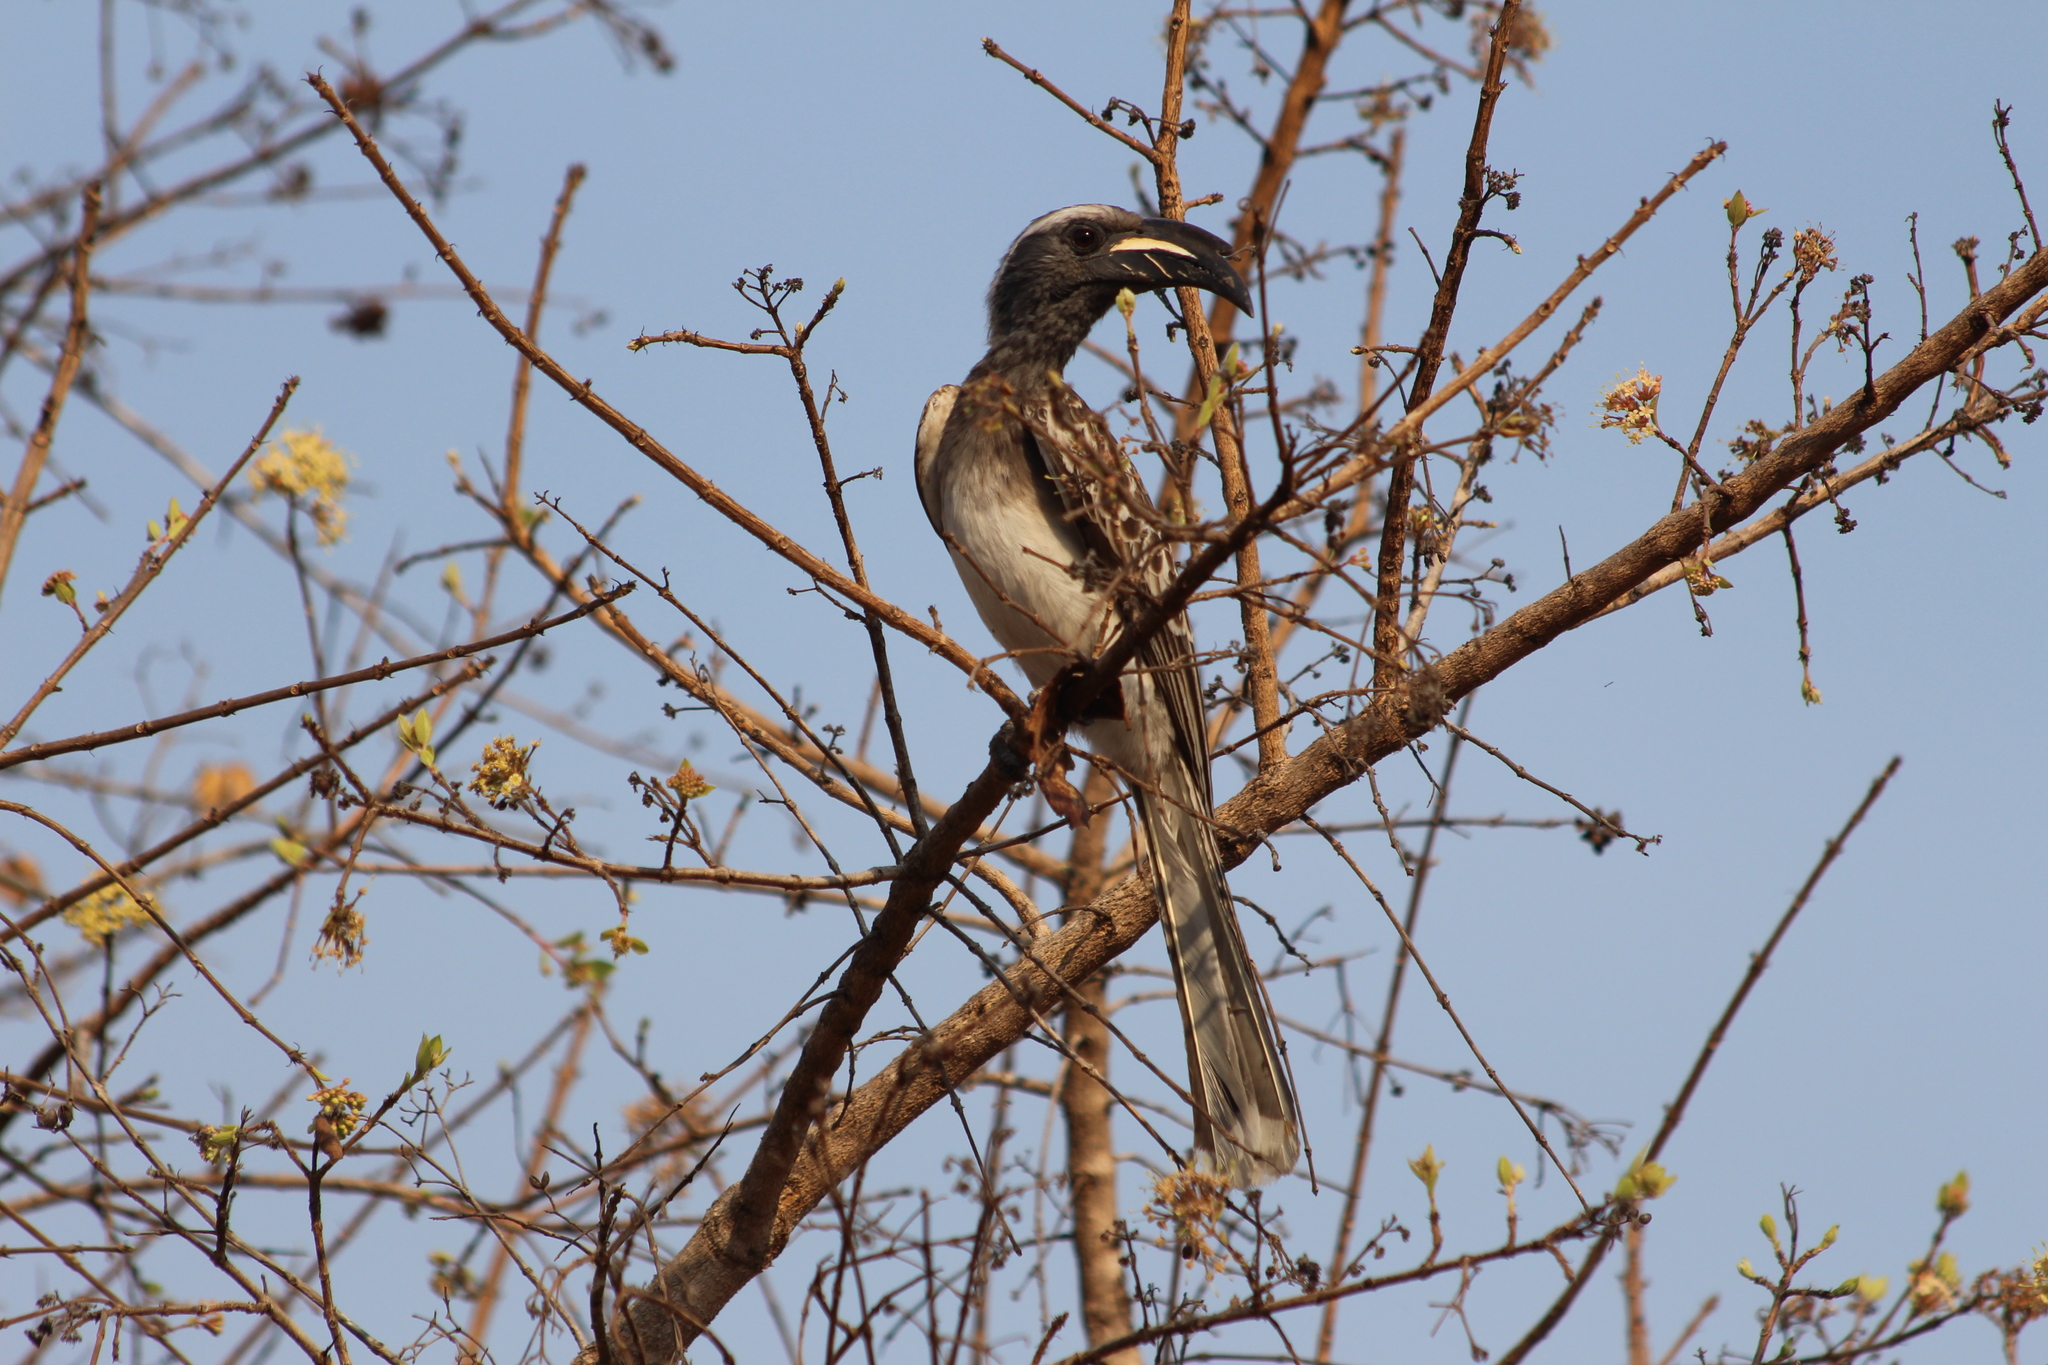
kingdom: Animalia
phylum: Chordata
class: Aves
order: Bucerotiformes
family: Bucerotidae
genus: Lophoceros
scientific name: Lophoceros nasutus
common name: African grey hornbill
